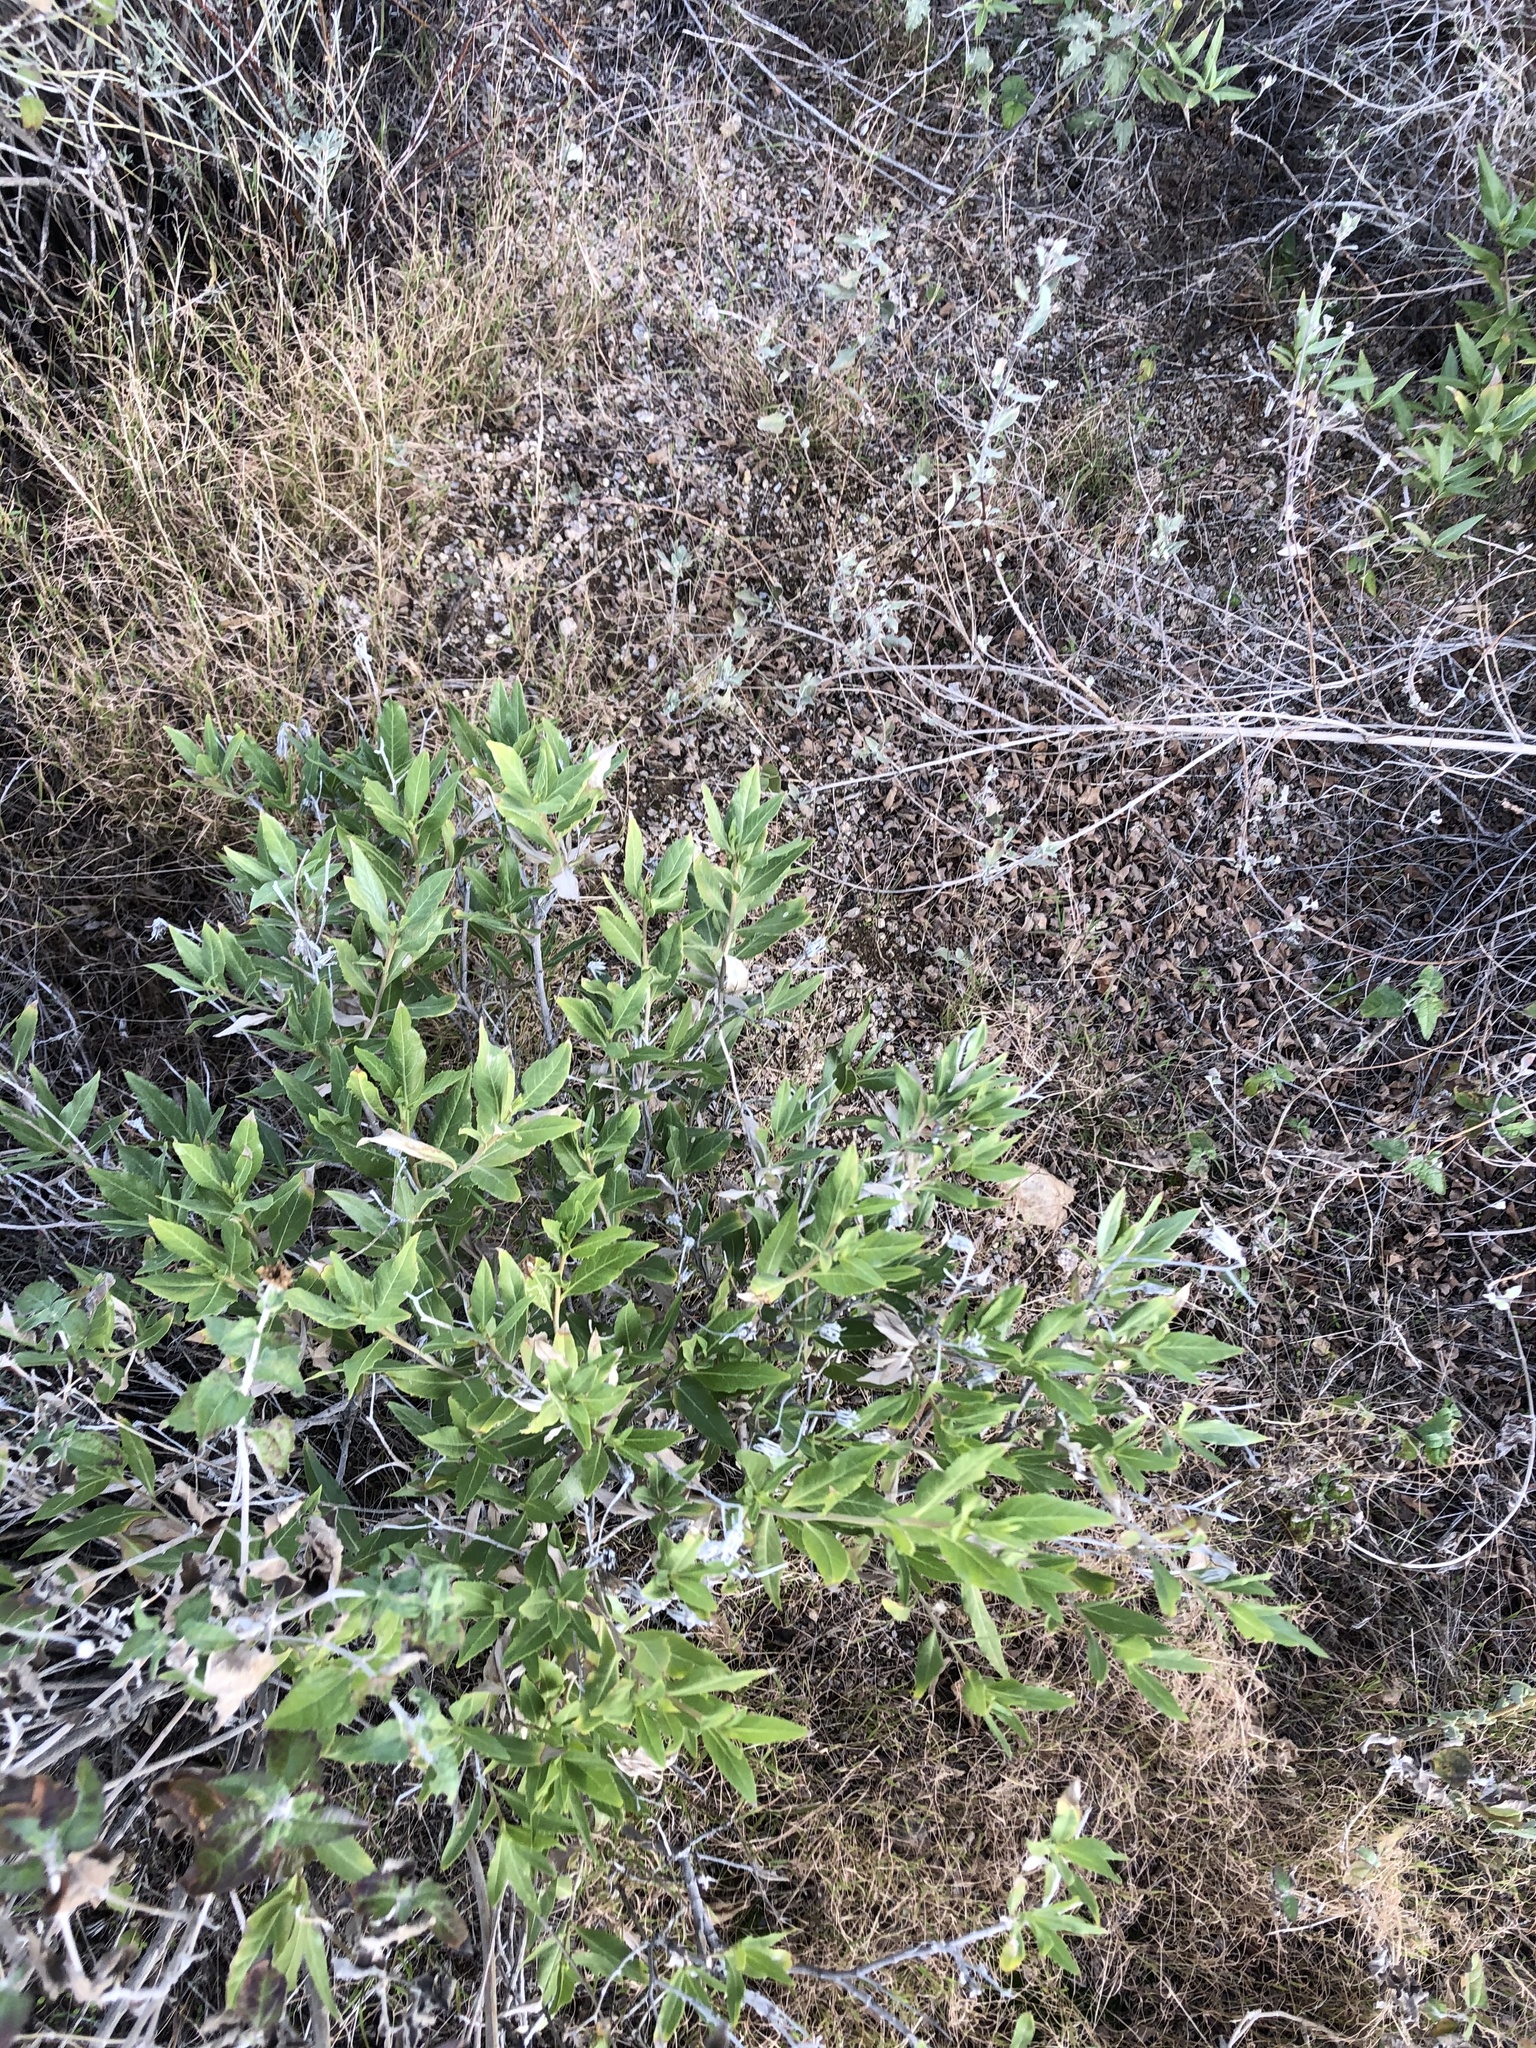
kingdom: Plantae
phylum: Tracheophyta
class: Magnoliopsida
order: Asterales
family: Asteraceae
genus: Trixis
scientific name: Trixis californica
